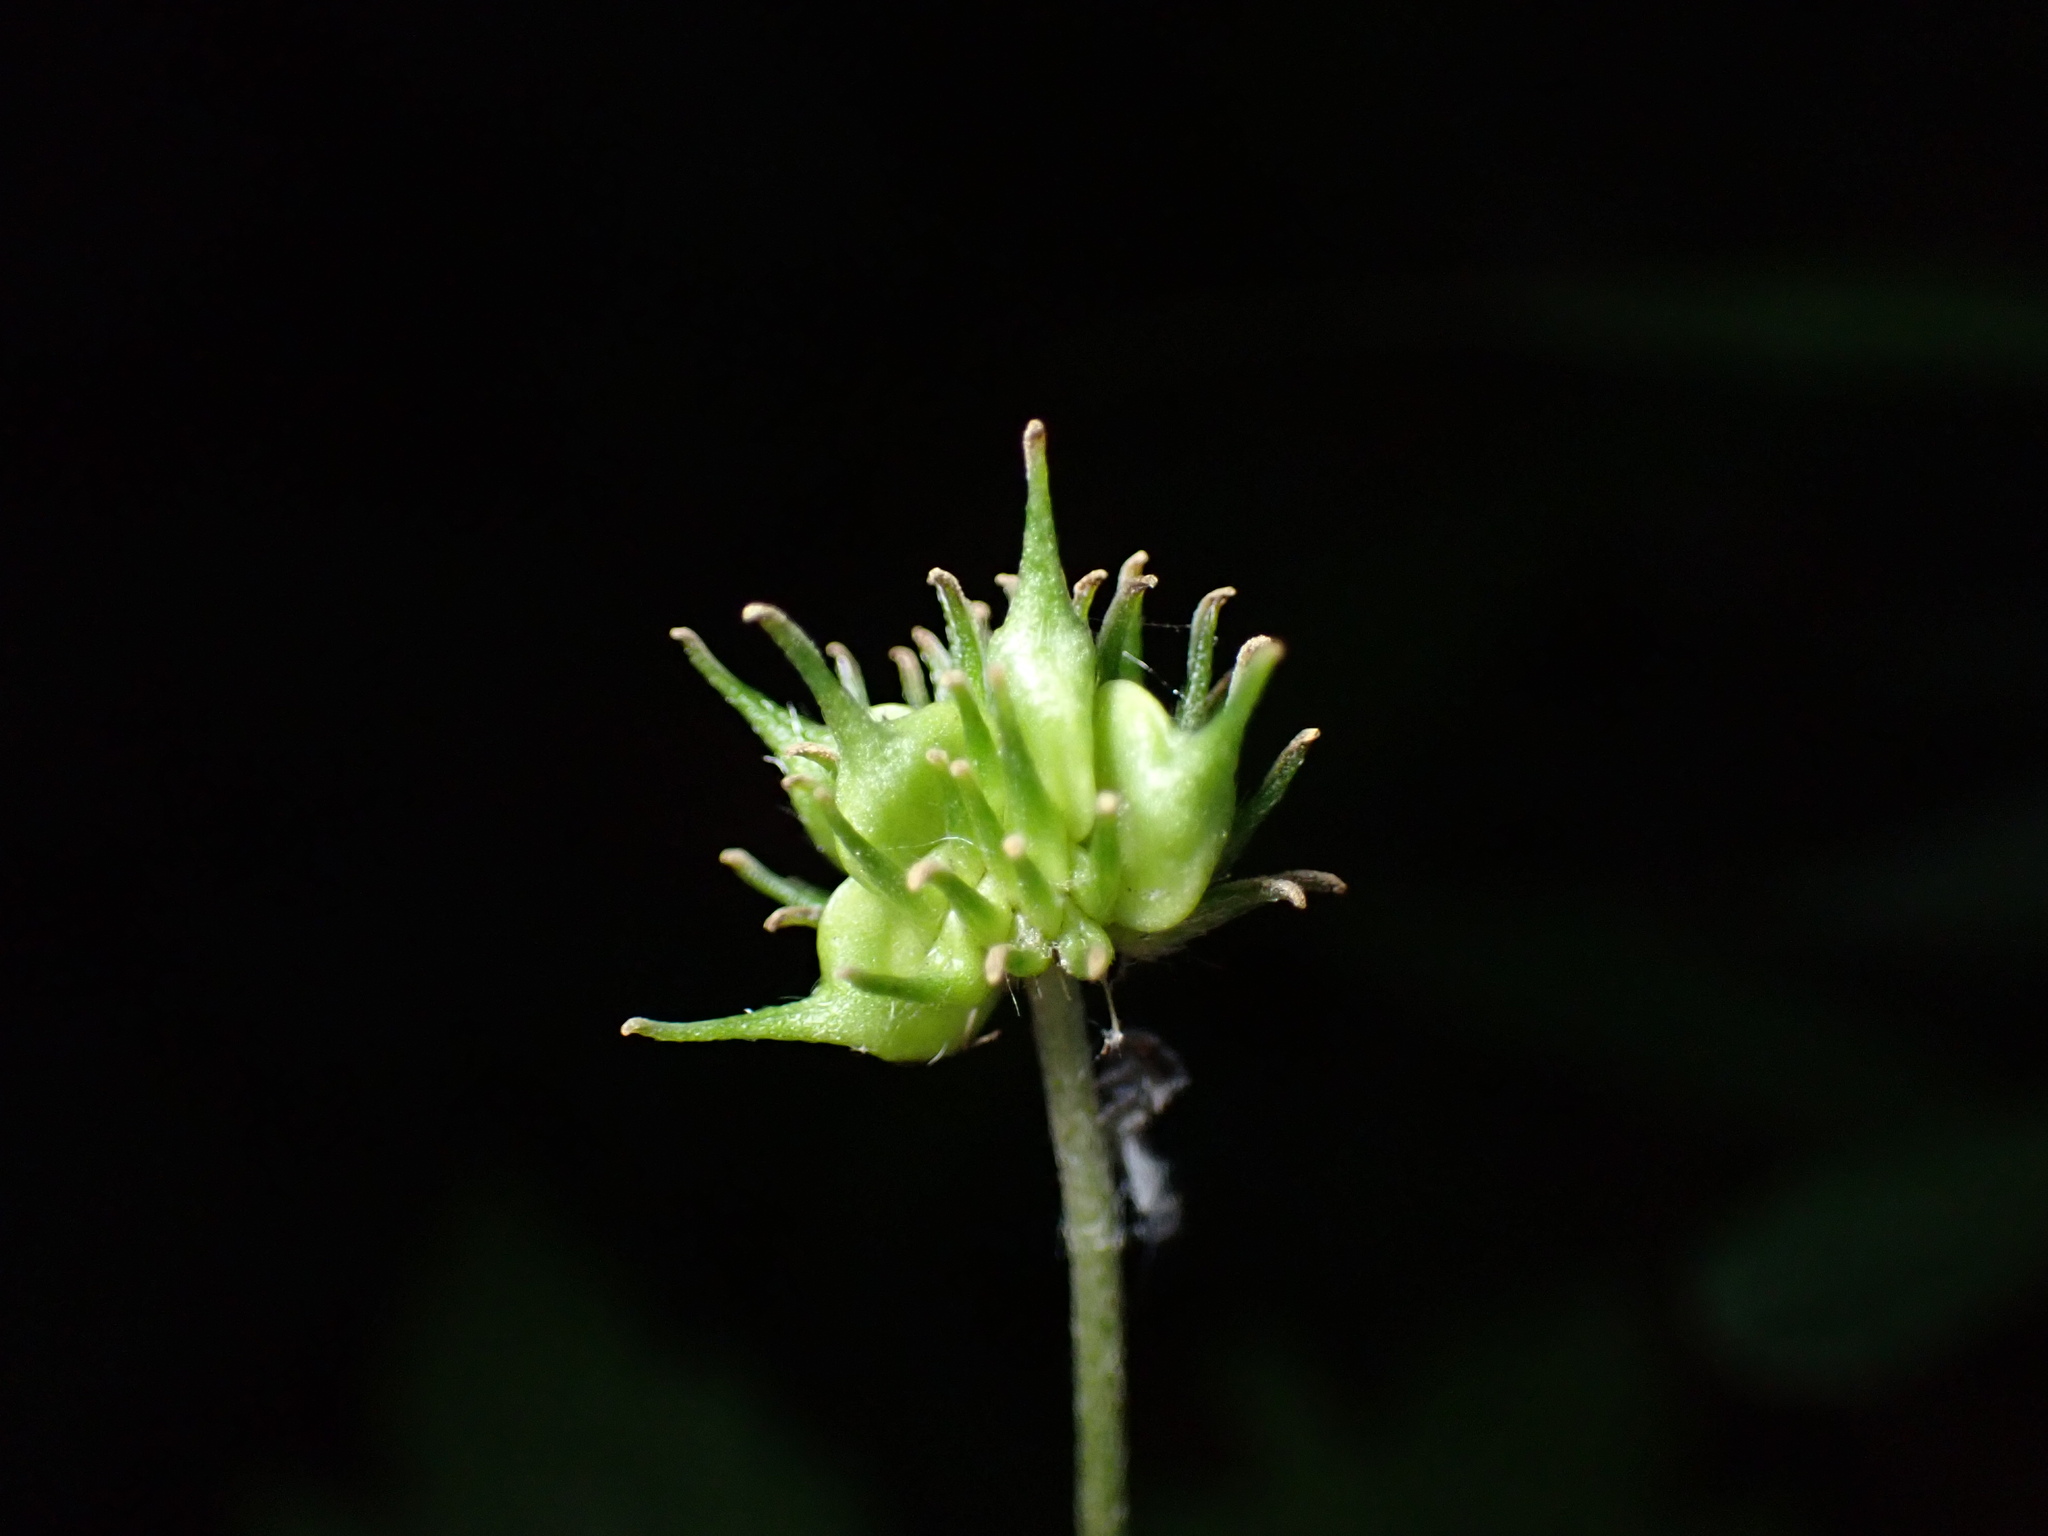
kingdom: Plantae
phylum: Tracheophyta
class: Magnoliopsida
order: Ranunculales
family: Ranunculaceae
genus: Anemonastrum
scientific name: Anemonastrum canadense
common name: Canada anemone
